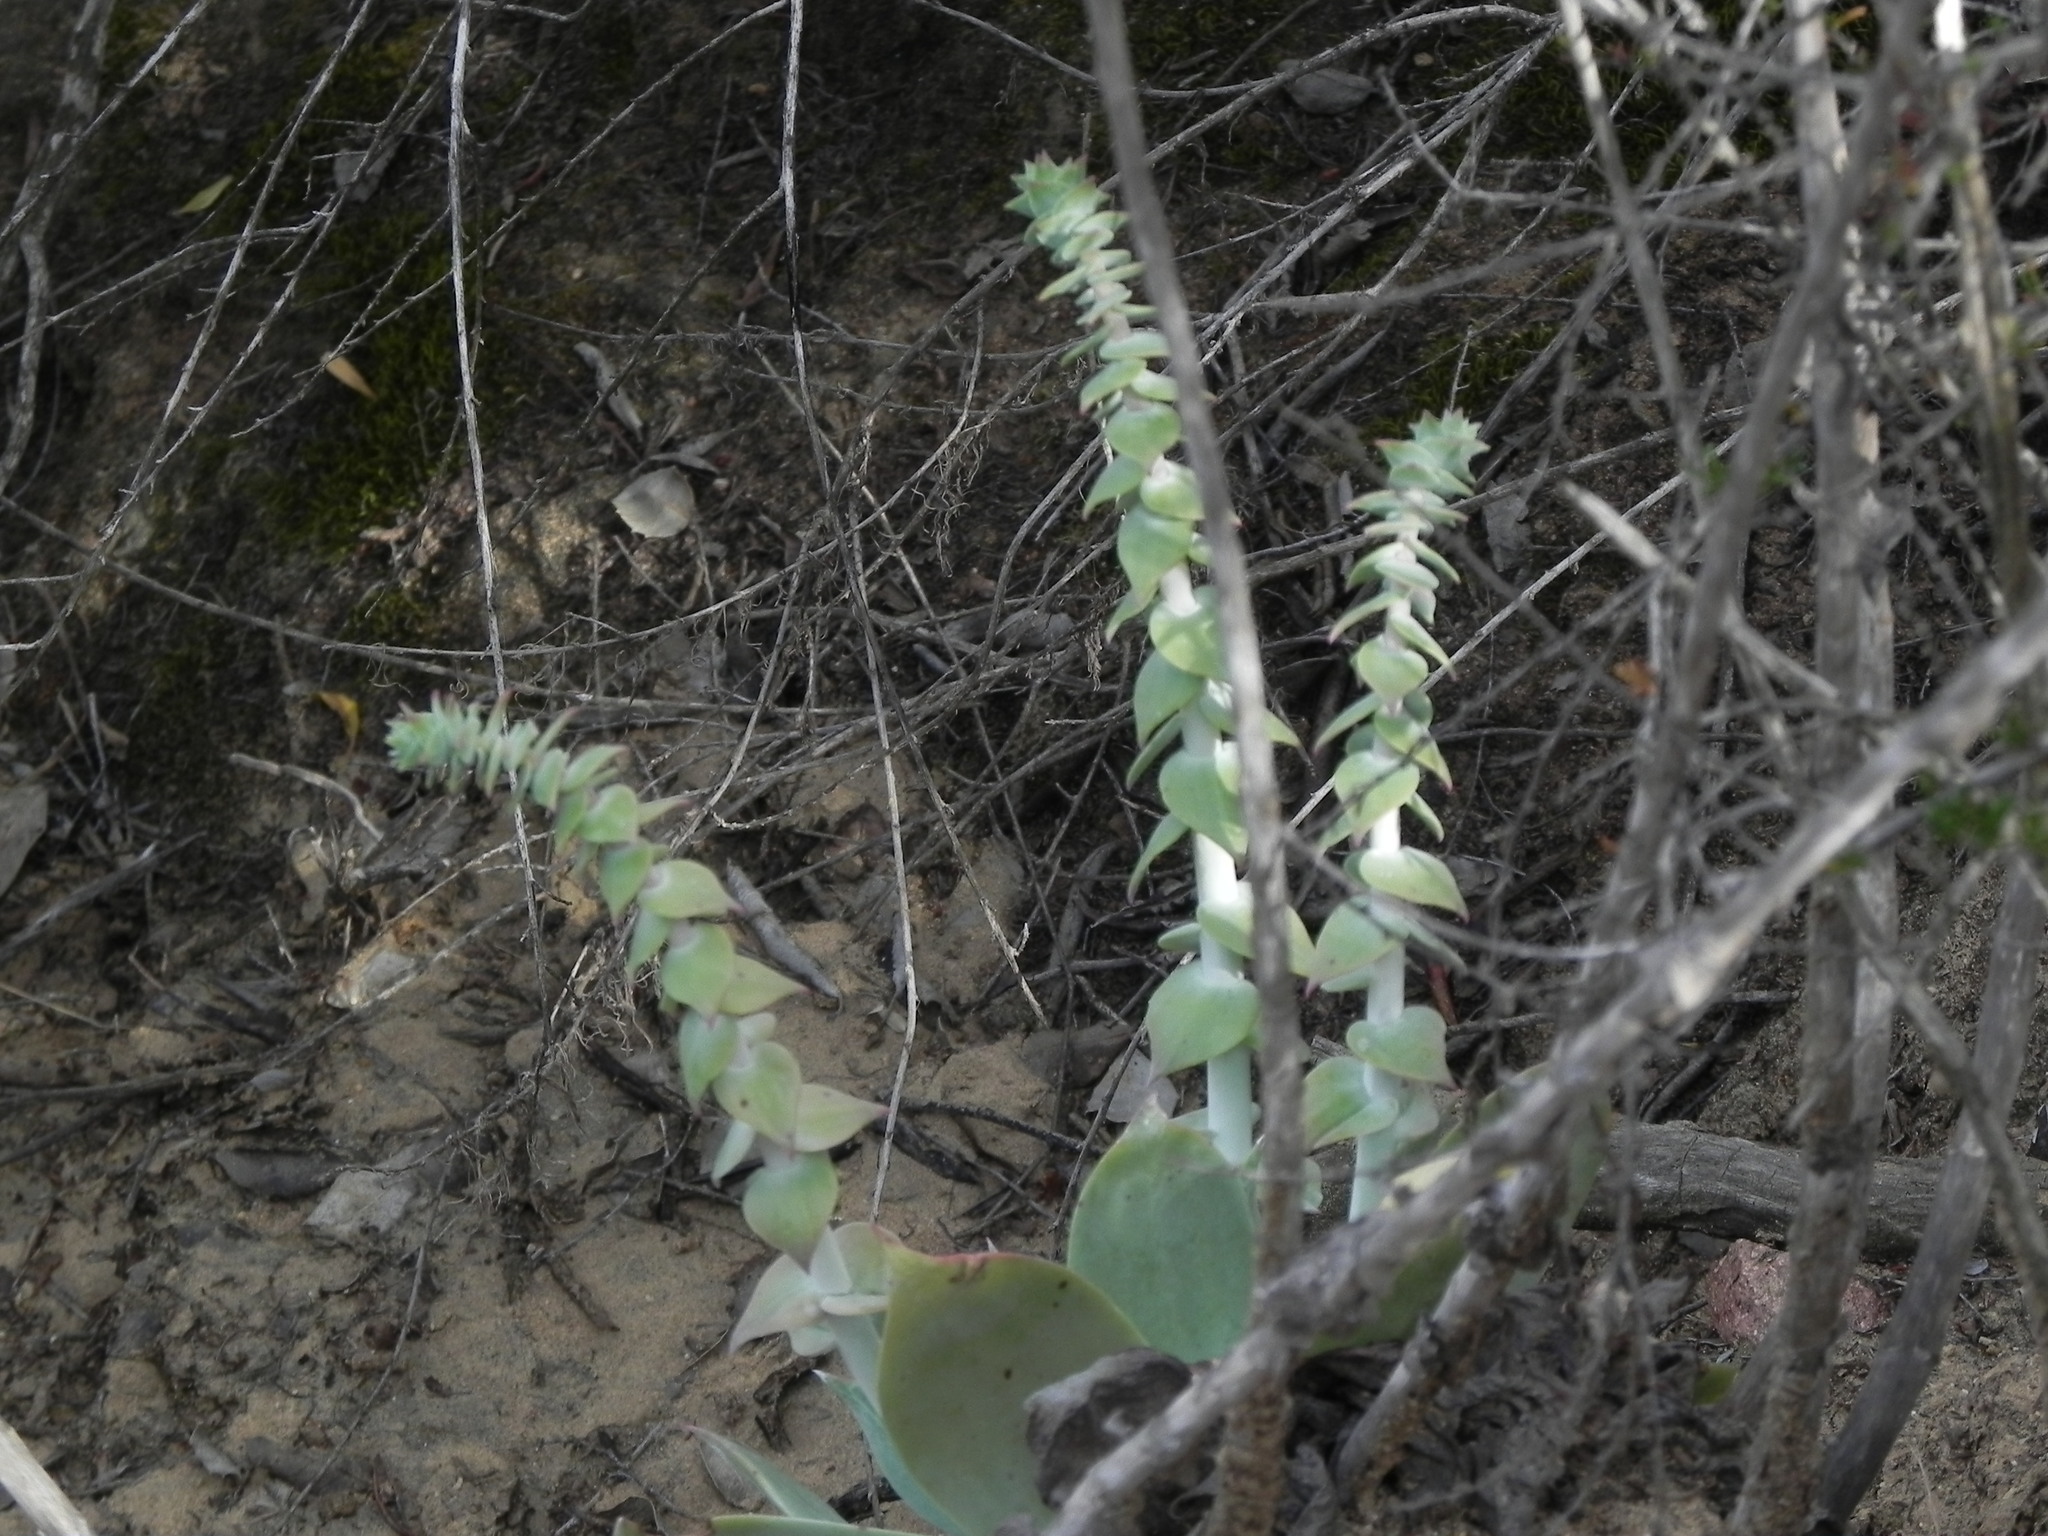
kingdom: Plantae
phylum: Tracheophyta
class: Magnoliopsida
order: Saxifragales
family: Crassulaceae
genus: Dudleya
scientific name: Dudleya pulverulenta
